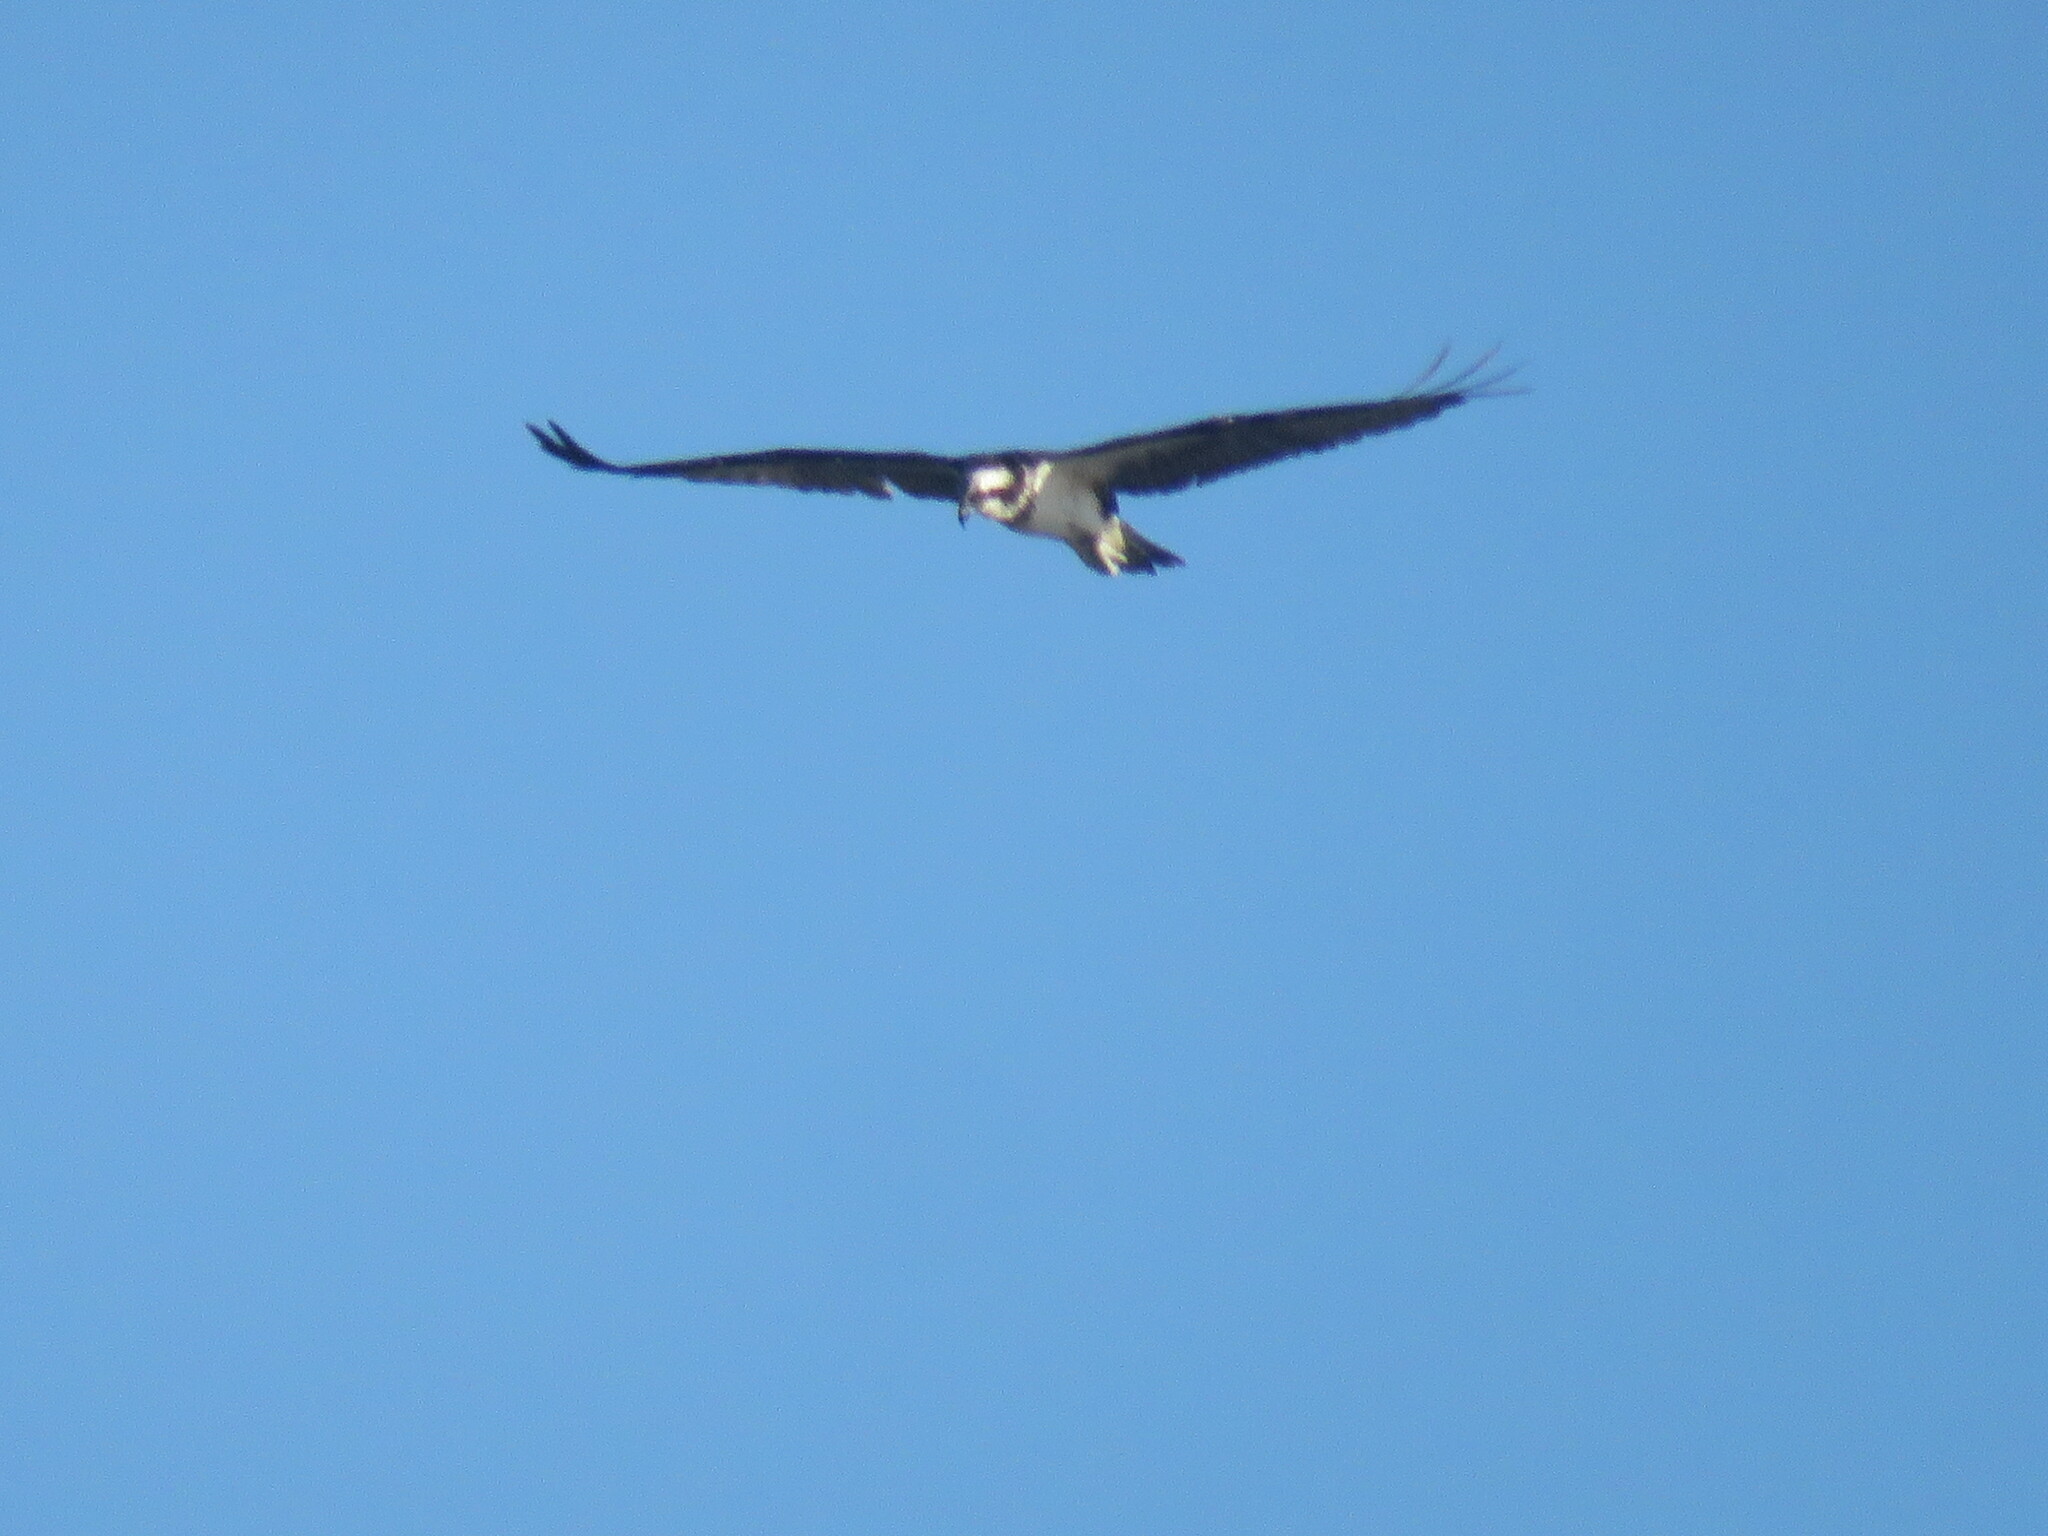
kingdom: Animalia
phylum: Chordata
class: Aves
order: Accipitriformes
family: Pandionidae
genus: Pandion
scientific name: Pandion haliaetus
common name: Osprey
